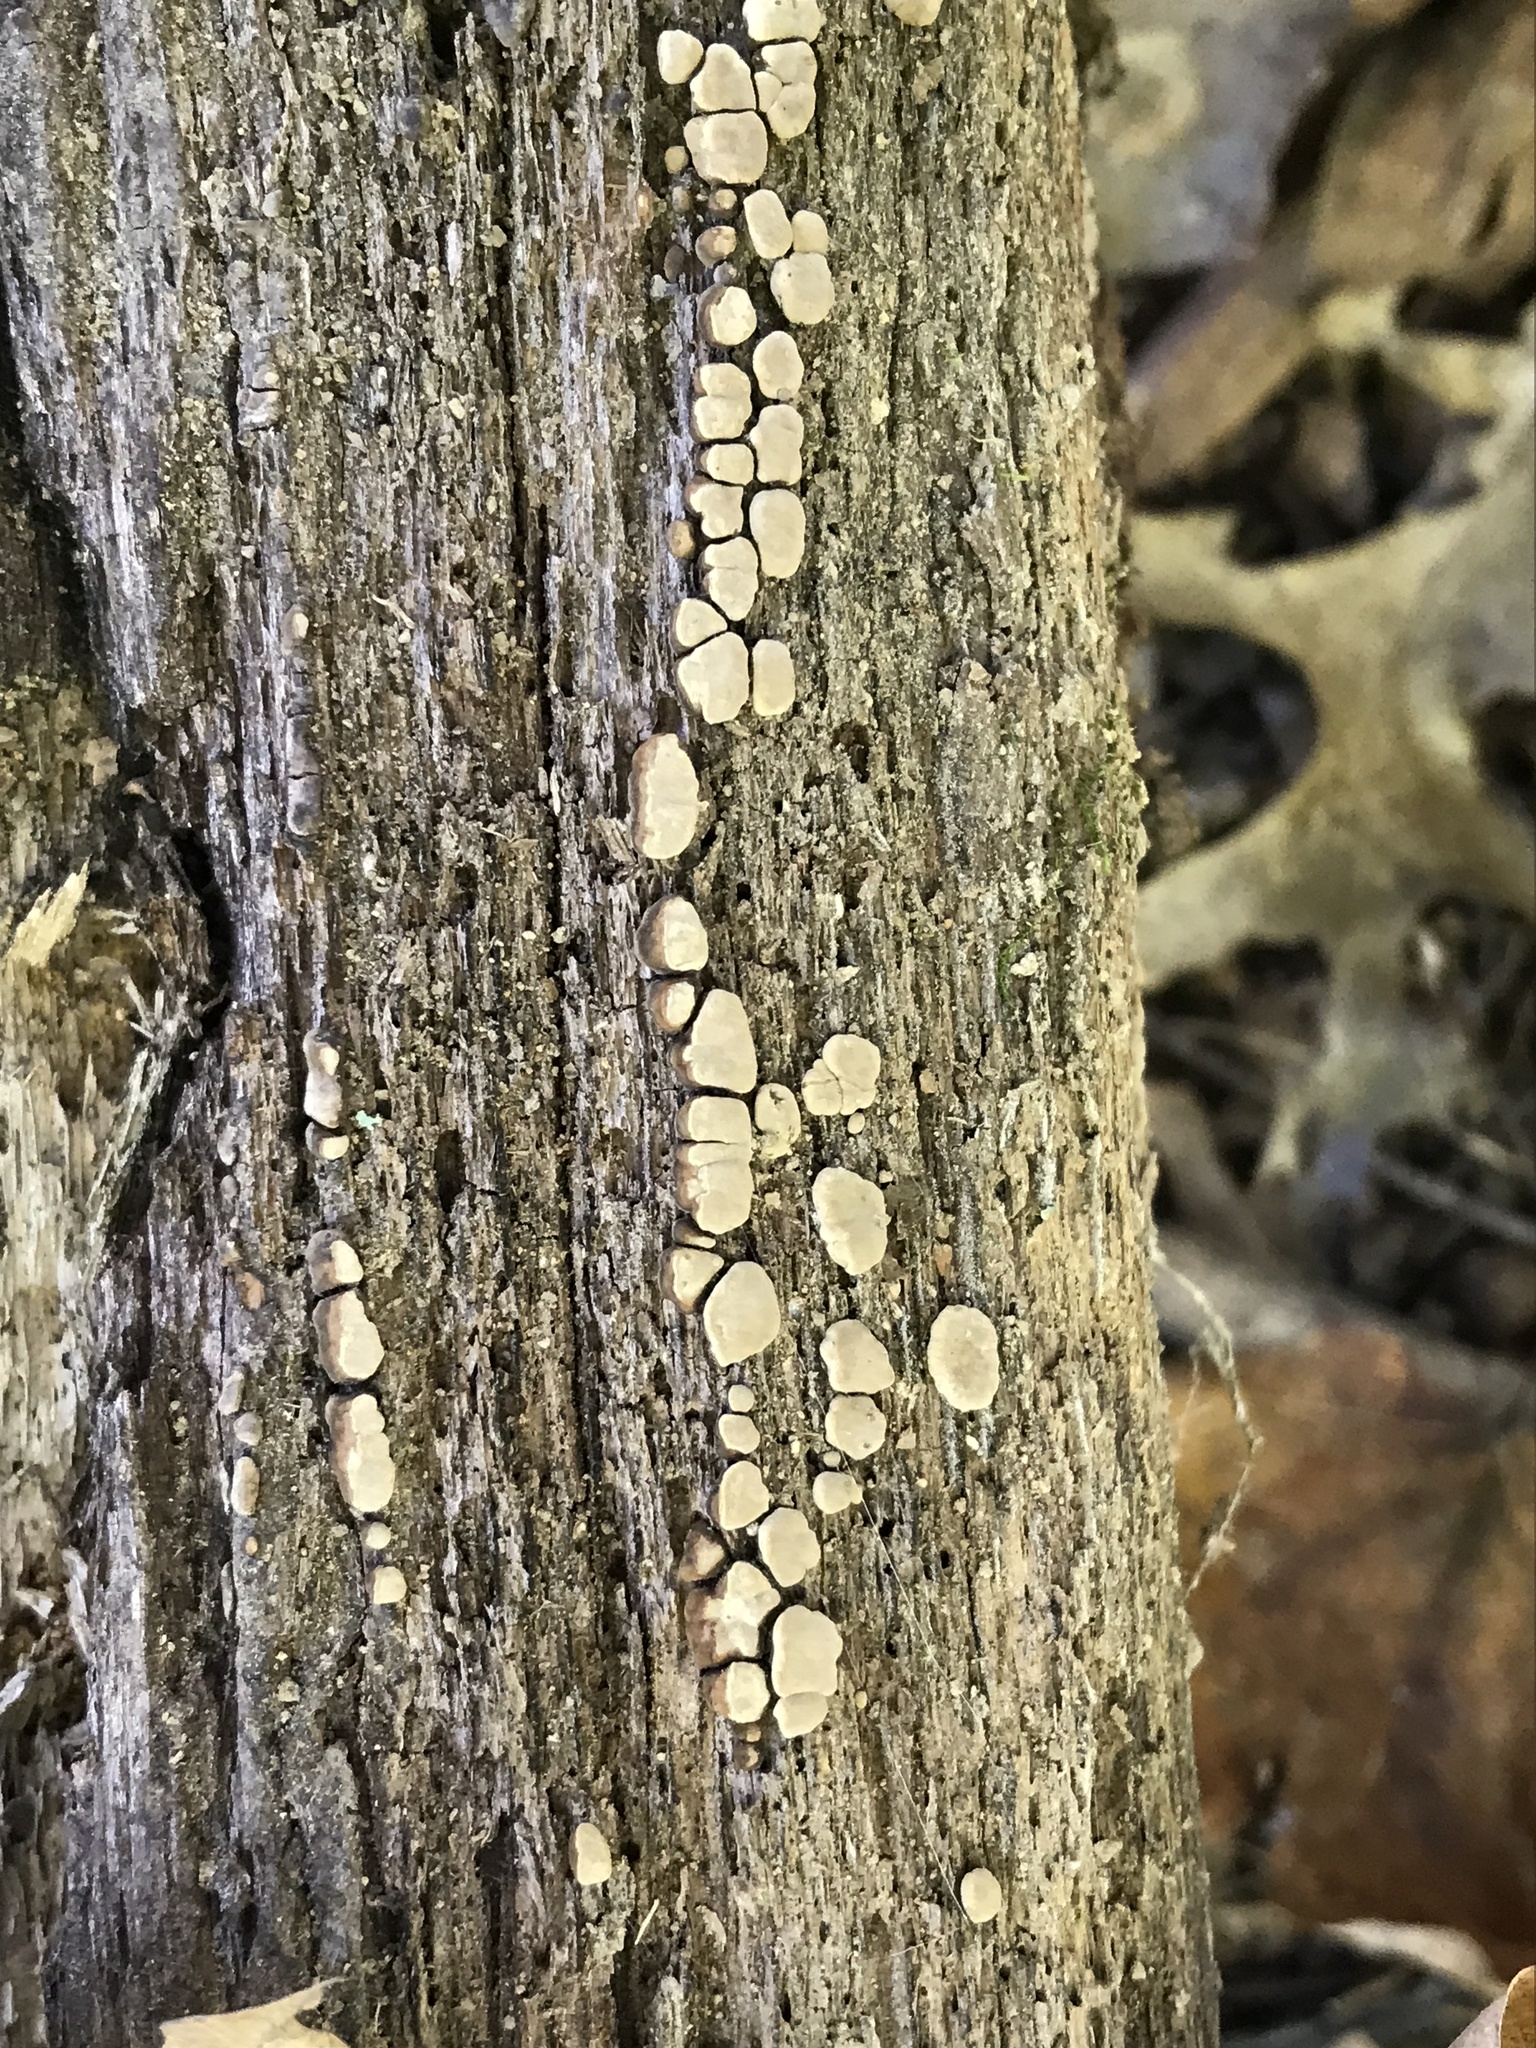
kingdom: Fungi
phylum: Basidiomycota
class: Agaricomycetes
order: Russulales
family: Stereaceae
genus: Xylobolus
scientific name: Xylobolus frustulatus
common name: Ceramic parchment
